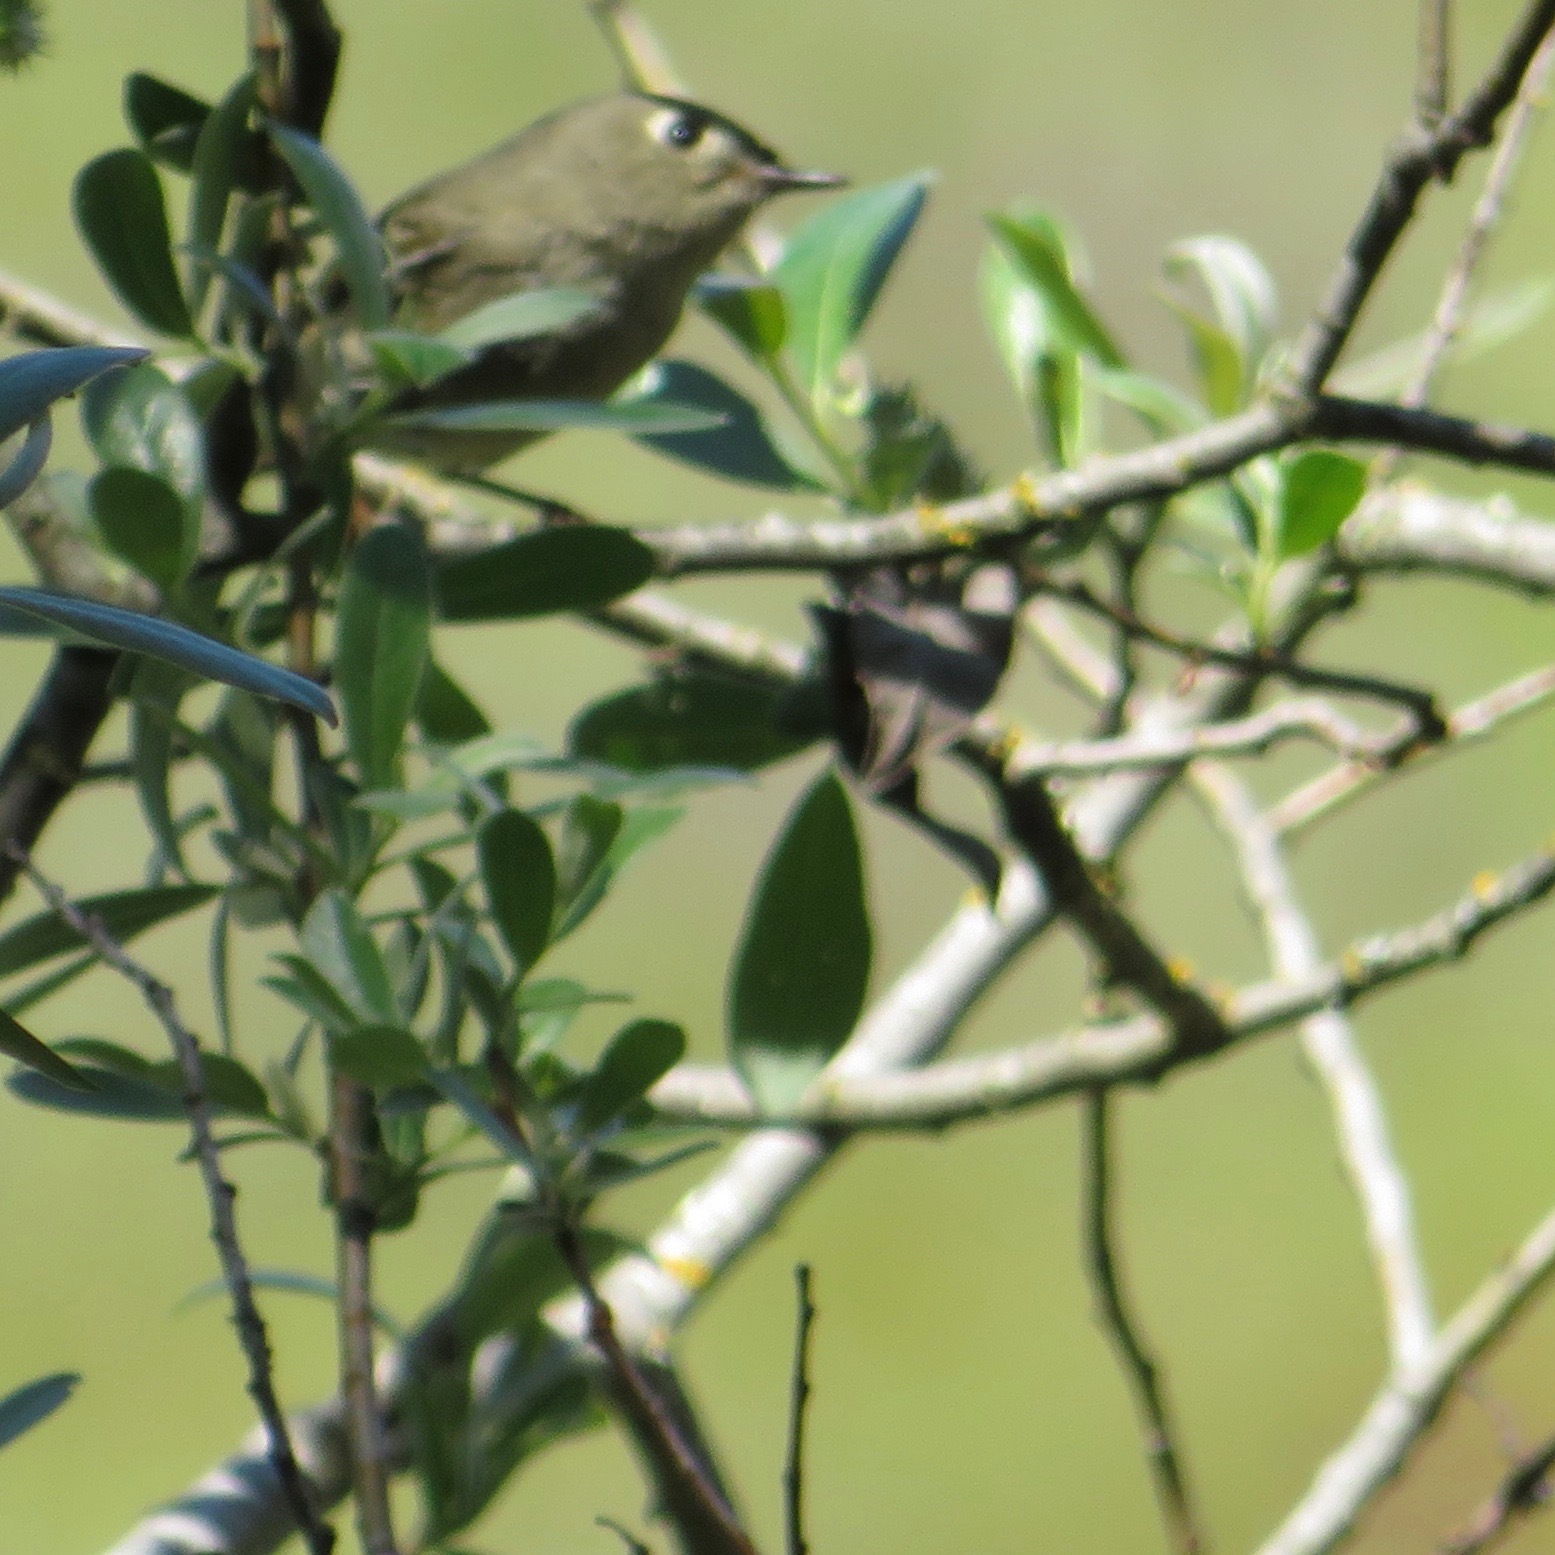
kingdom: Animalia
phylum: Chordata
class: Aves
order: Passeriformes
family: Regulidae
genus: Regulus
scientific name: Regulus calendula
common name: Ruby-crowned kinglet
